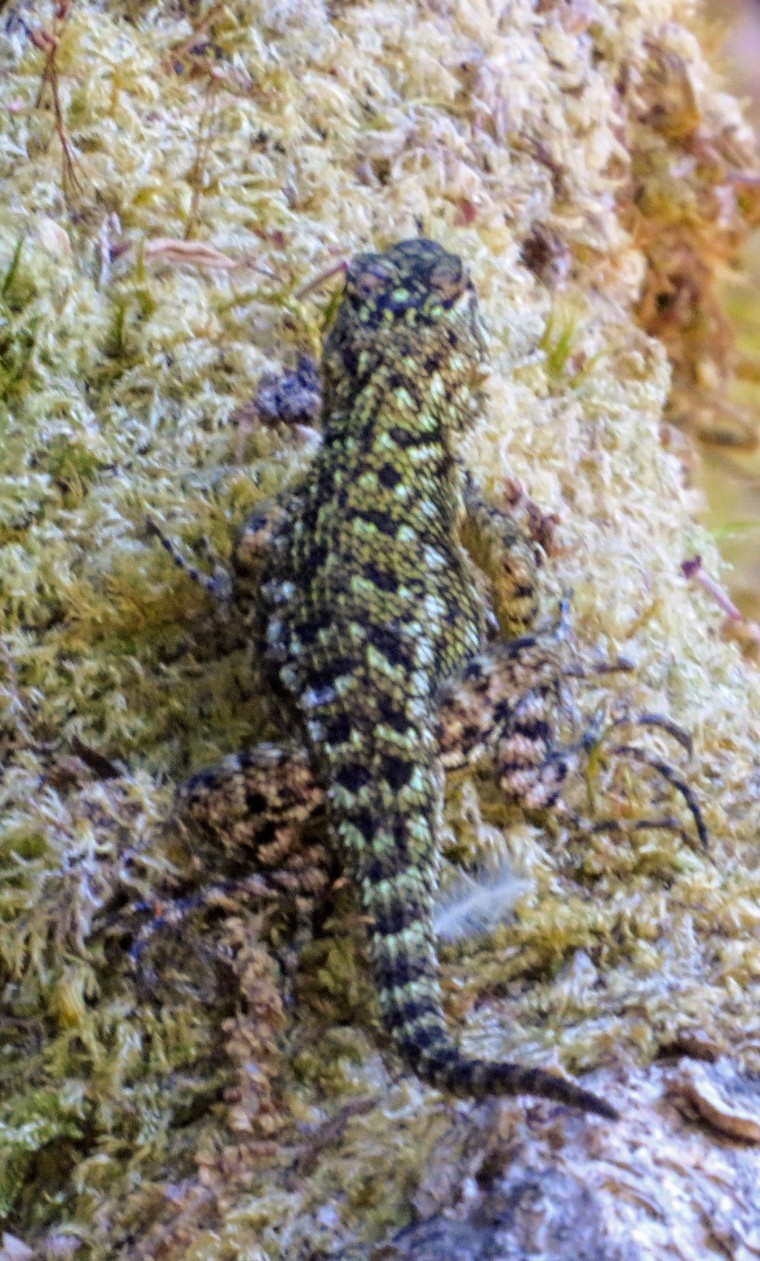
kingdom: Animalia
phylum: Chordata
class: Squamata
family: Phrynosomatidae
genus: Sceloporus
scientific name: Sceloporus malachiticus
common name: Green spiny lizard
